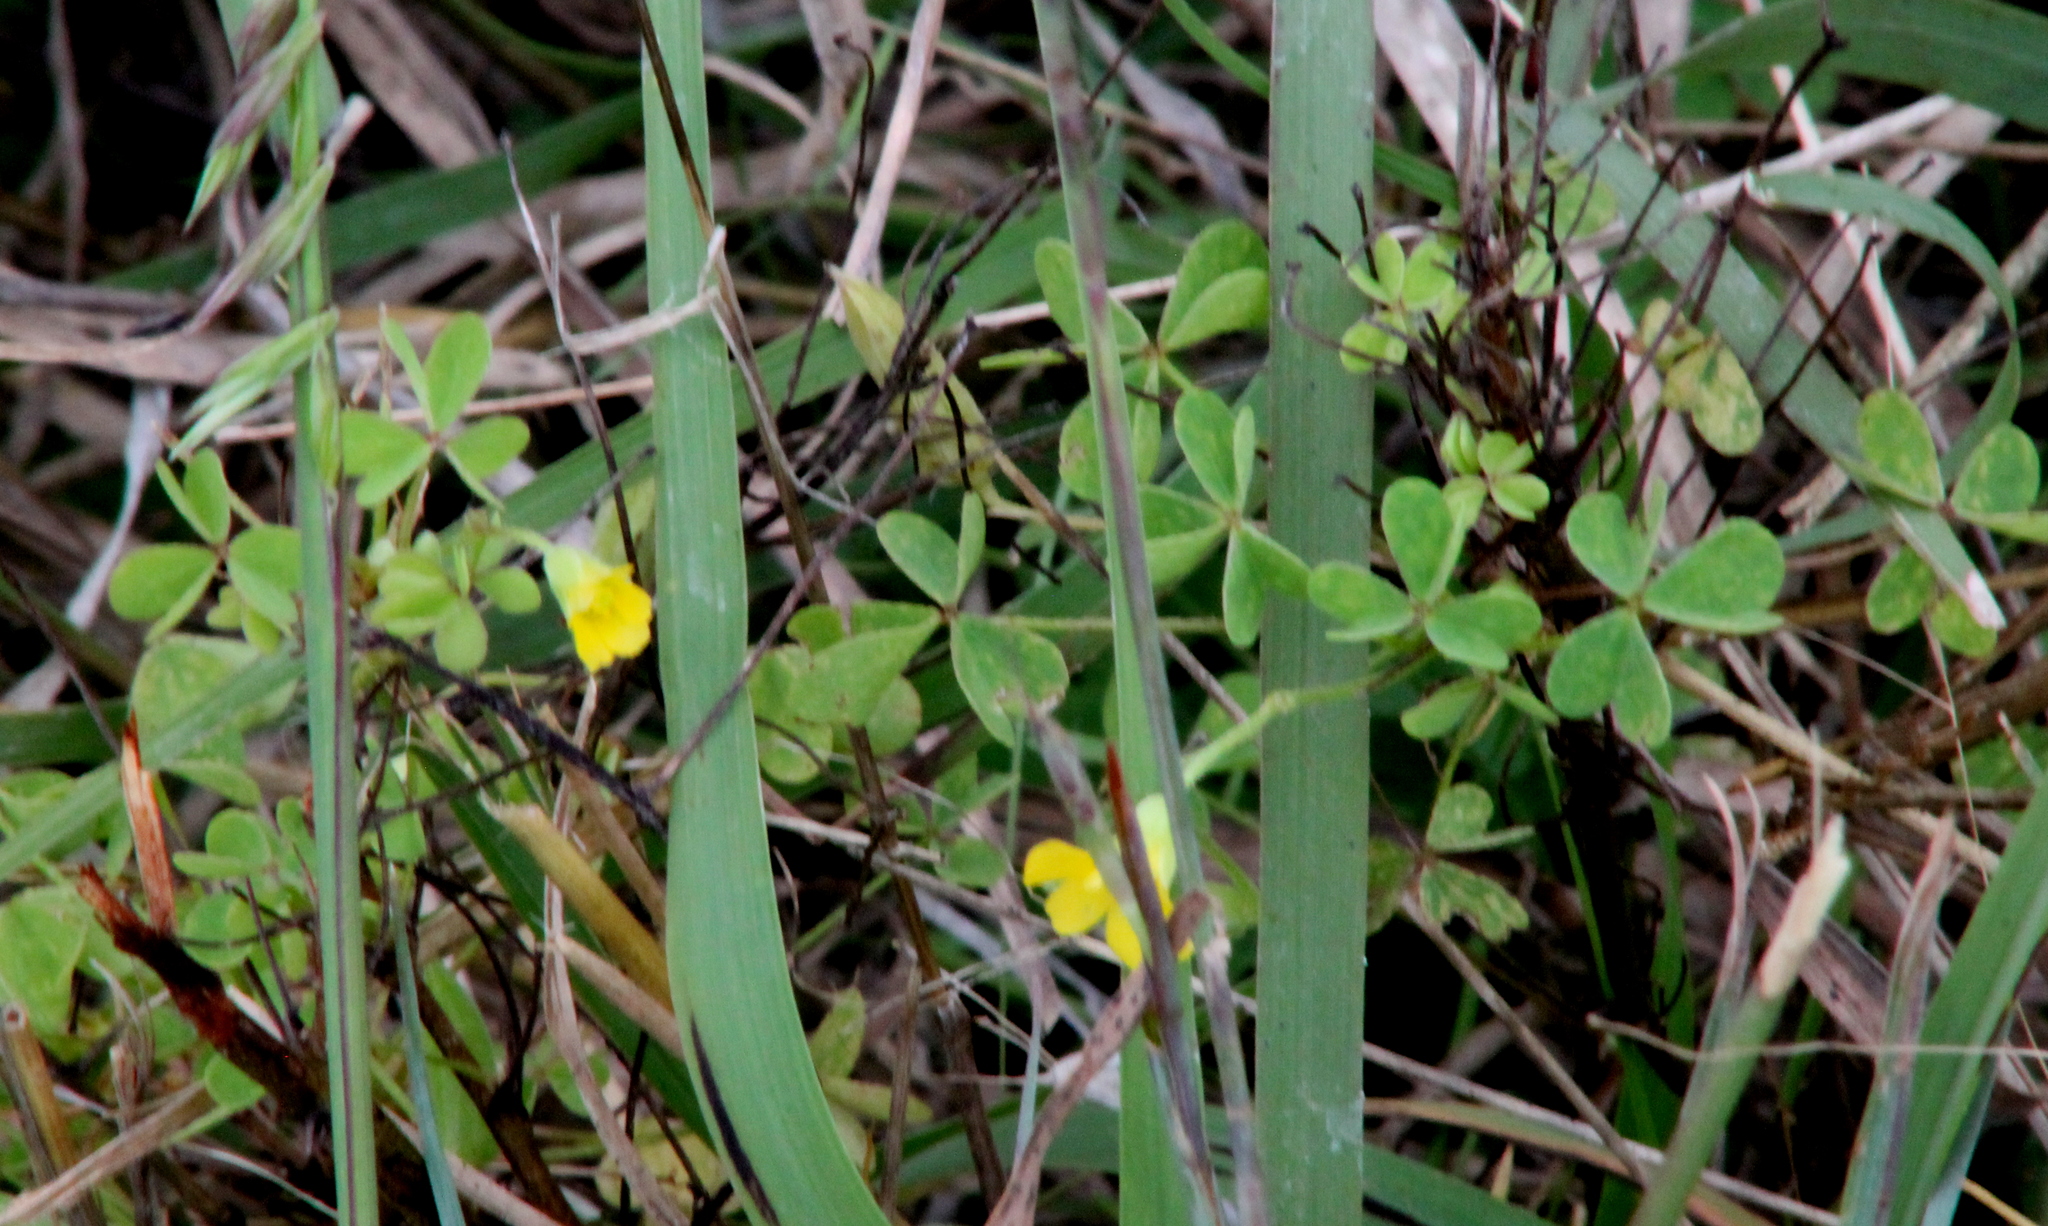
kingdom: Plantae
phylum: Tracheophyta
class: Magnoliopsida
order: Oxalidales
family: Oxalidaceae
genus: Oxalis
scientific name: Oxalis dillenii
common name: Sussex yellow-sorrel
